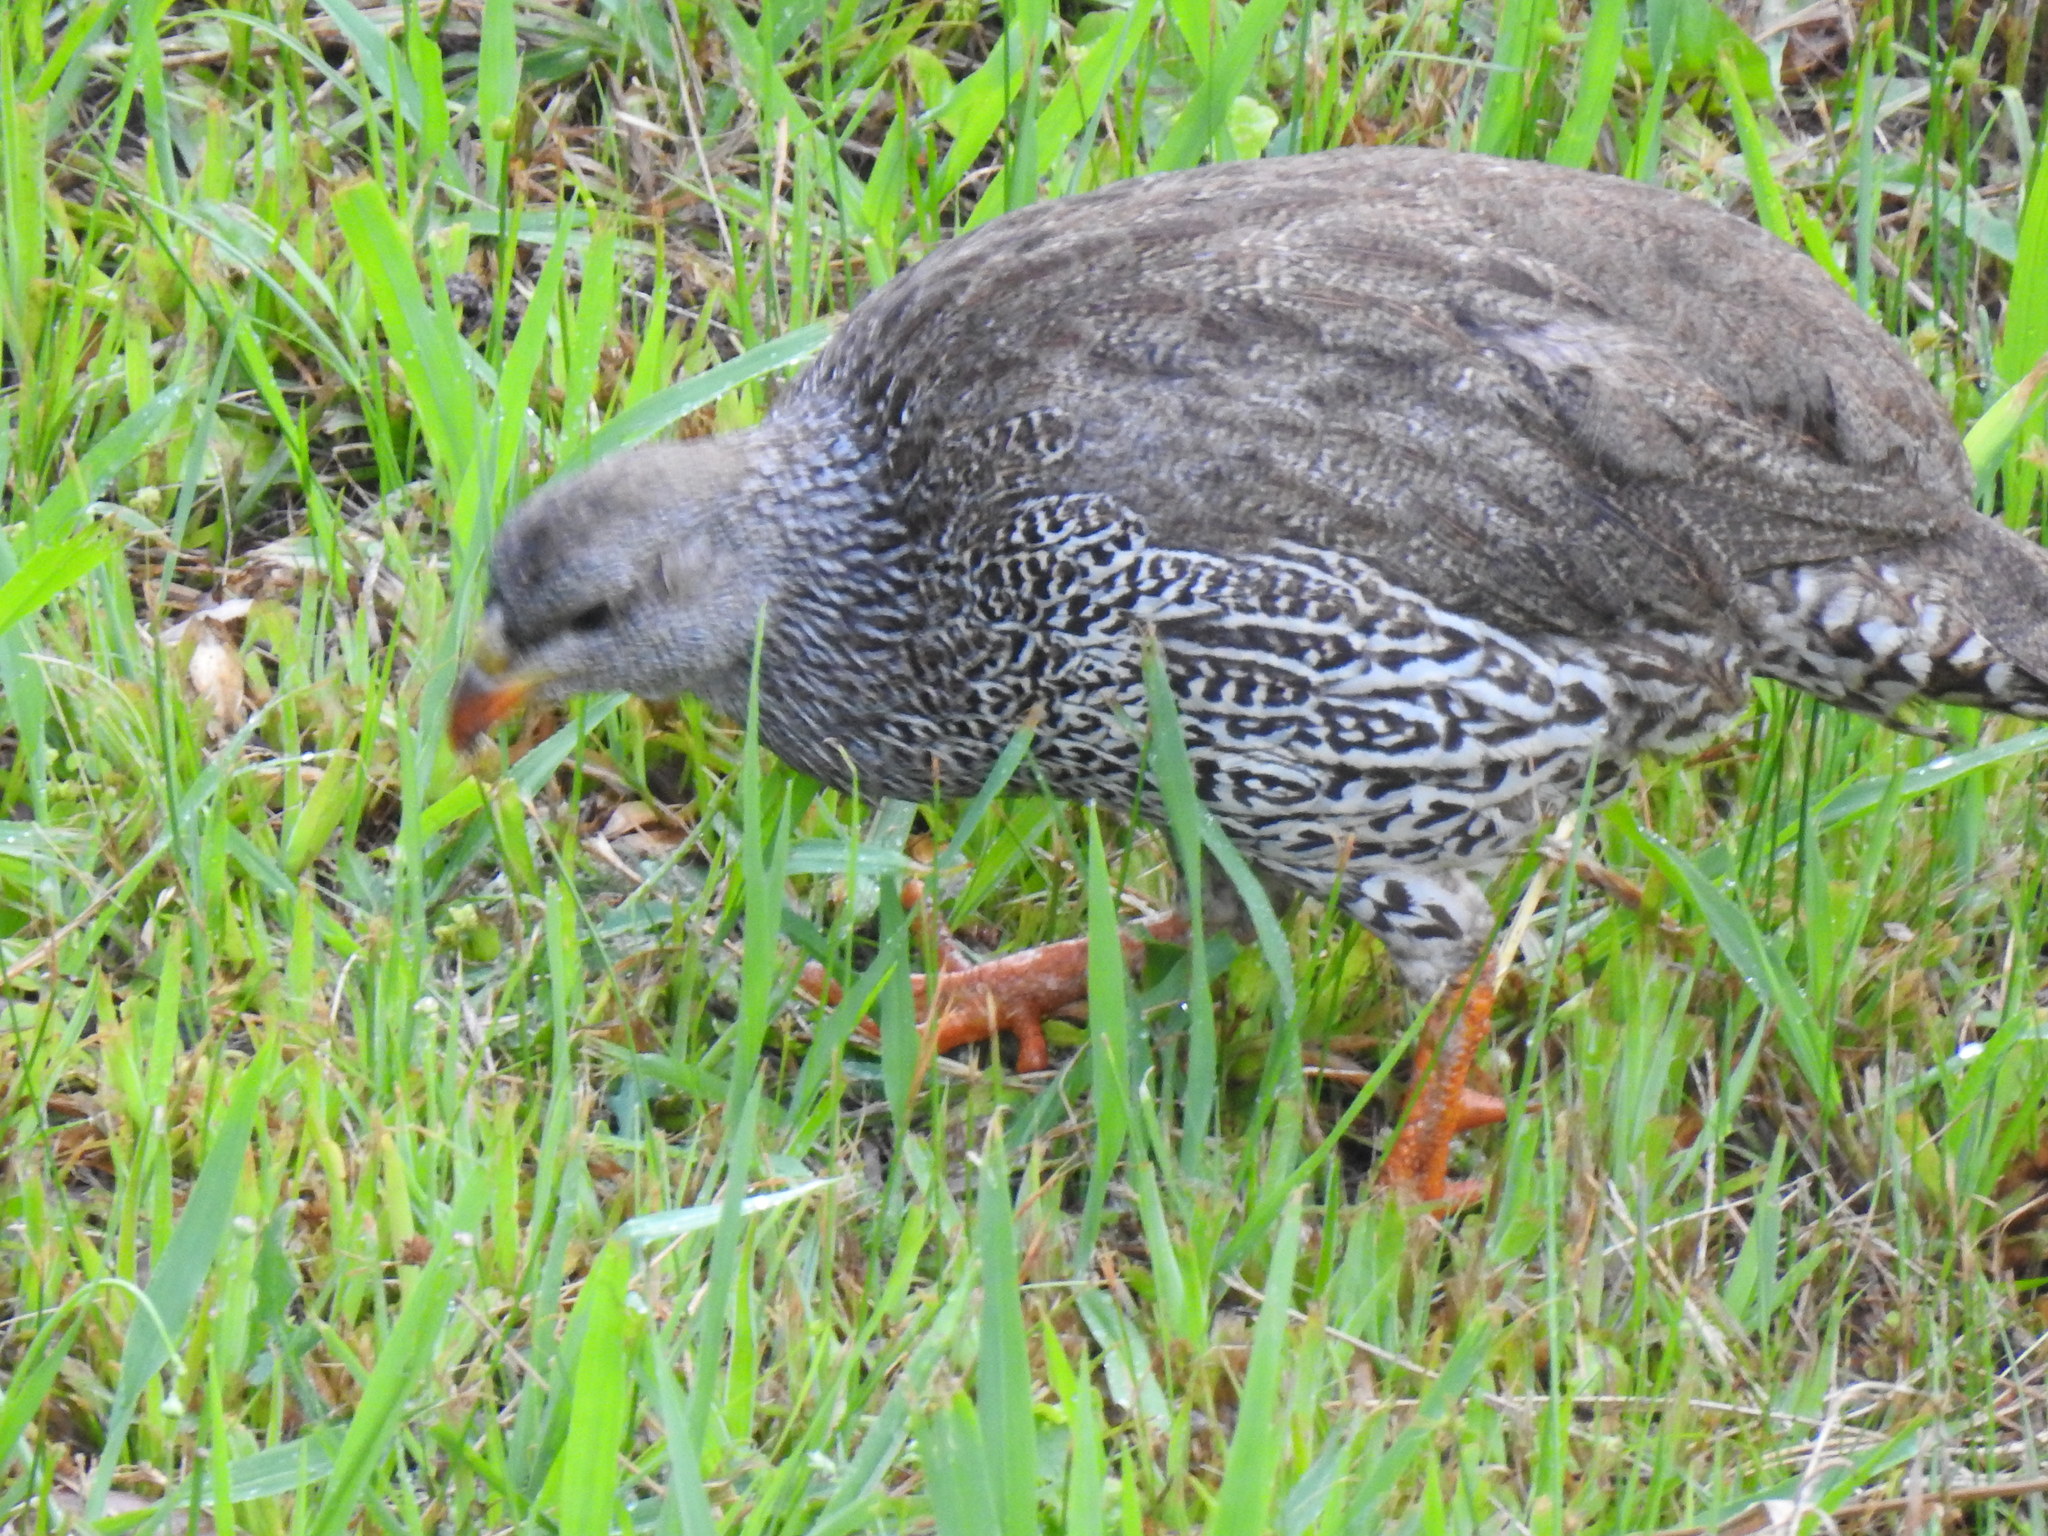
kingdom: Animalia
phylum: Chordata
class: Aves
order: Galliformes
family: Phasianidae
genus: Pternistis
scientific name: Pternistis natalensis
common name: Natal spurfowl
